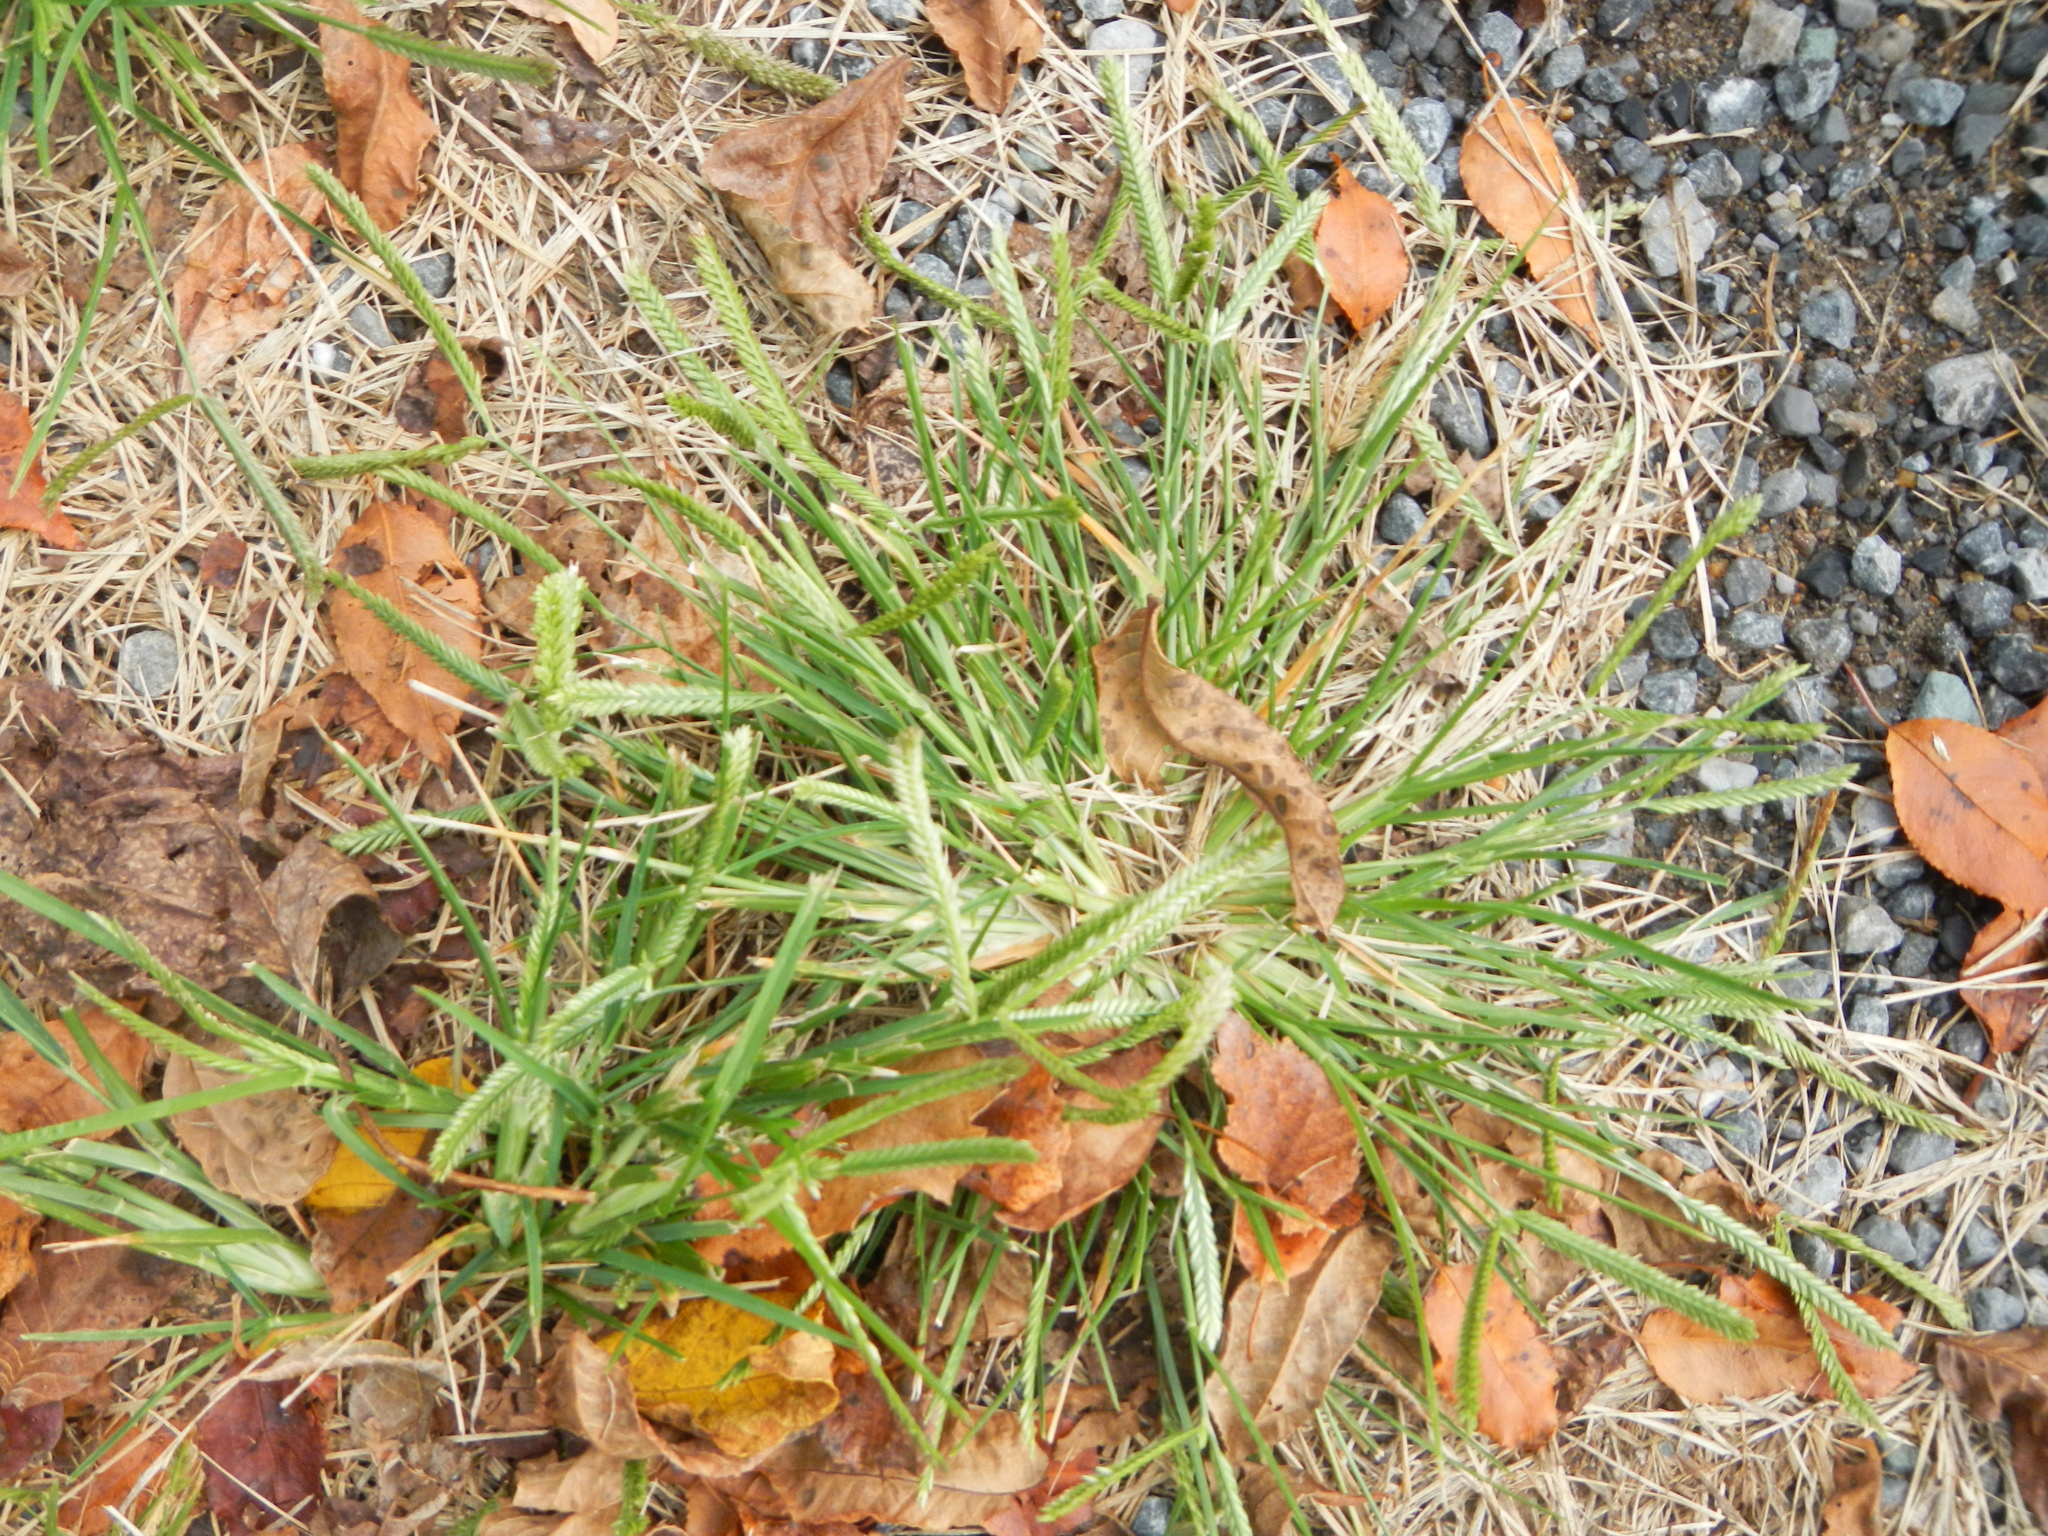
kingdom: Plantae
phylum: Tracheophyta
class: Liliopsida
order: Poales
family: Poaceae
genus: Eleusine
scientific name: Eleusine indica
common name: Yard-grass
